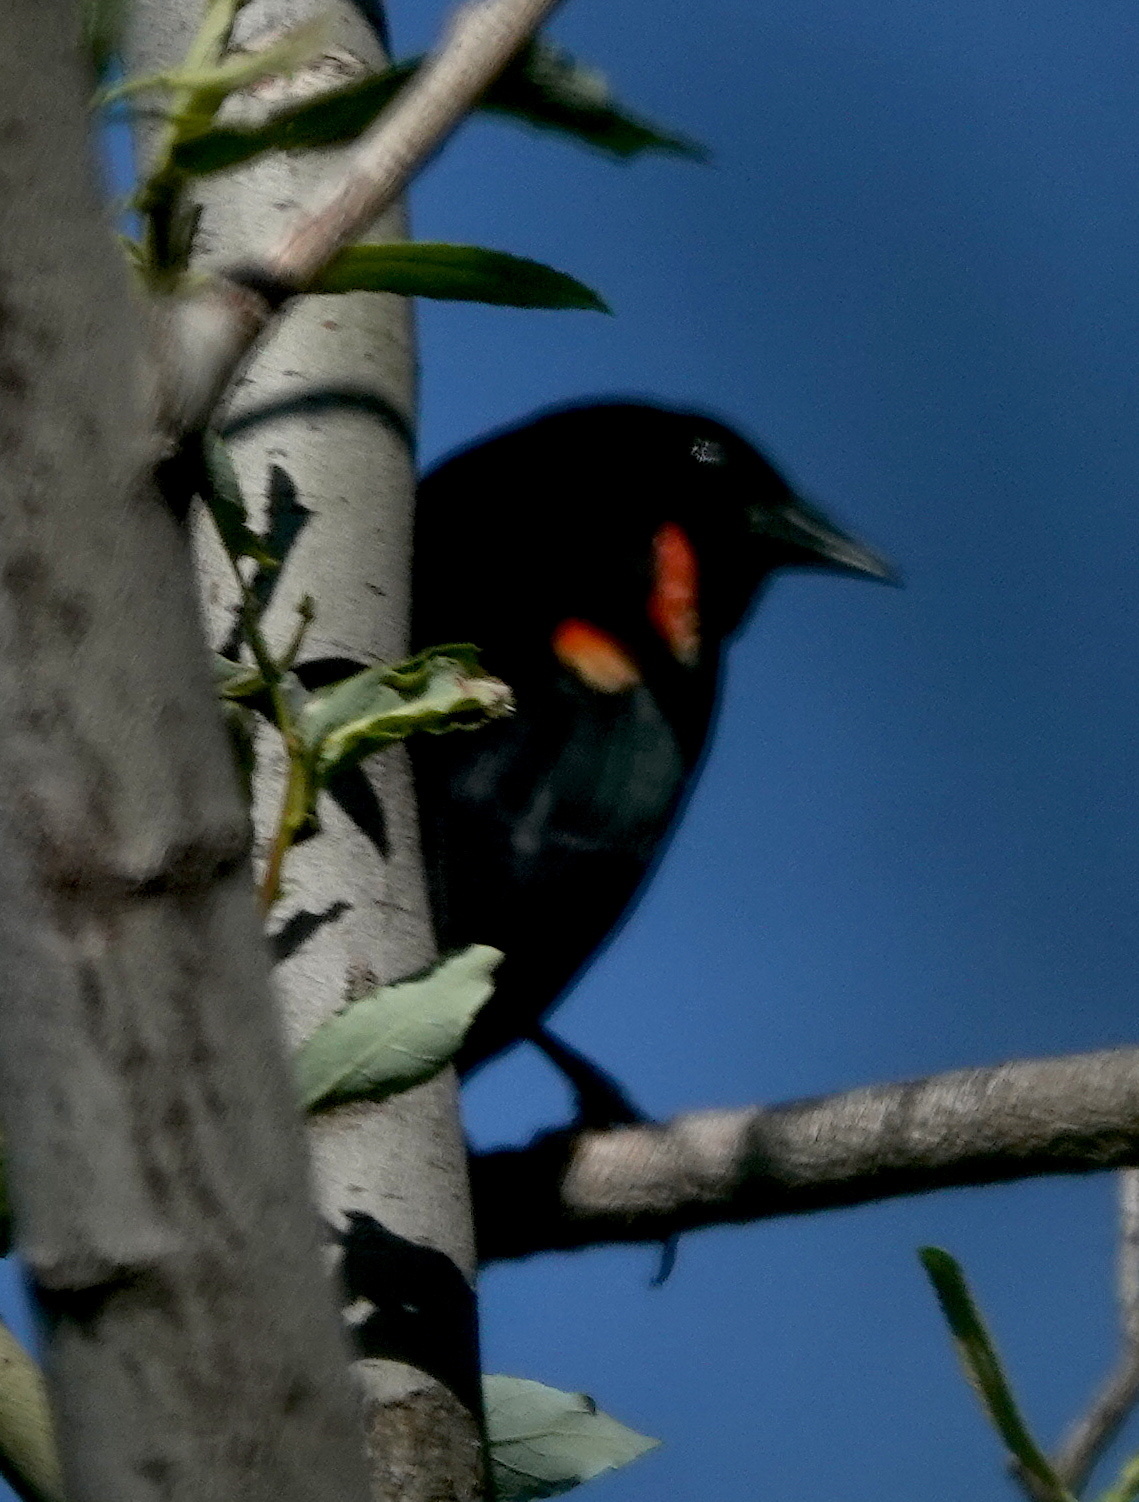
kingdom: Animalia
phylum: Chordata
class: Aves
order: Passeriformes
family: Icteridae
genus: Agelaius
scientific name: Agelaius phoeniceus
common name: Red-winged blackbird
